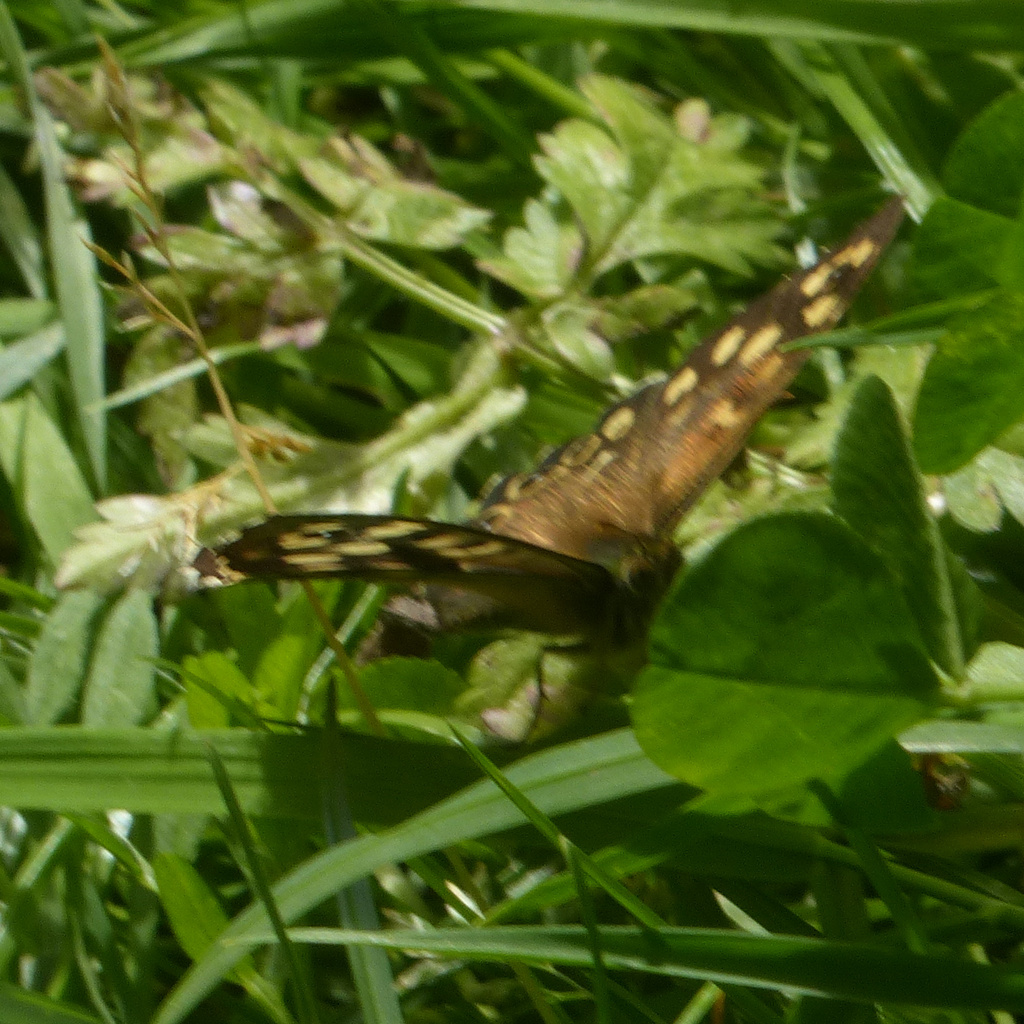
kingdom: Animalia
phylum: Arthropoda
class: Insecta
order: Lepidoptera
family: Nymphalidae
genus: Pararge
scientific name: Pararge aegeria
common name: Speckled wood
